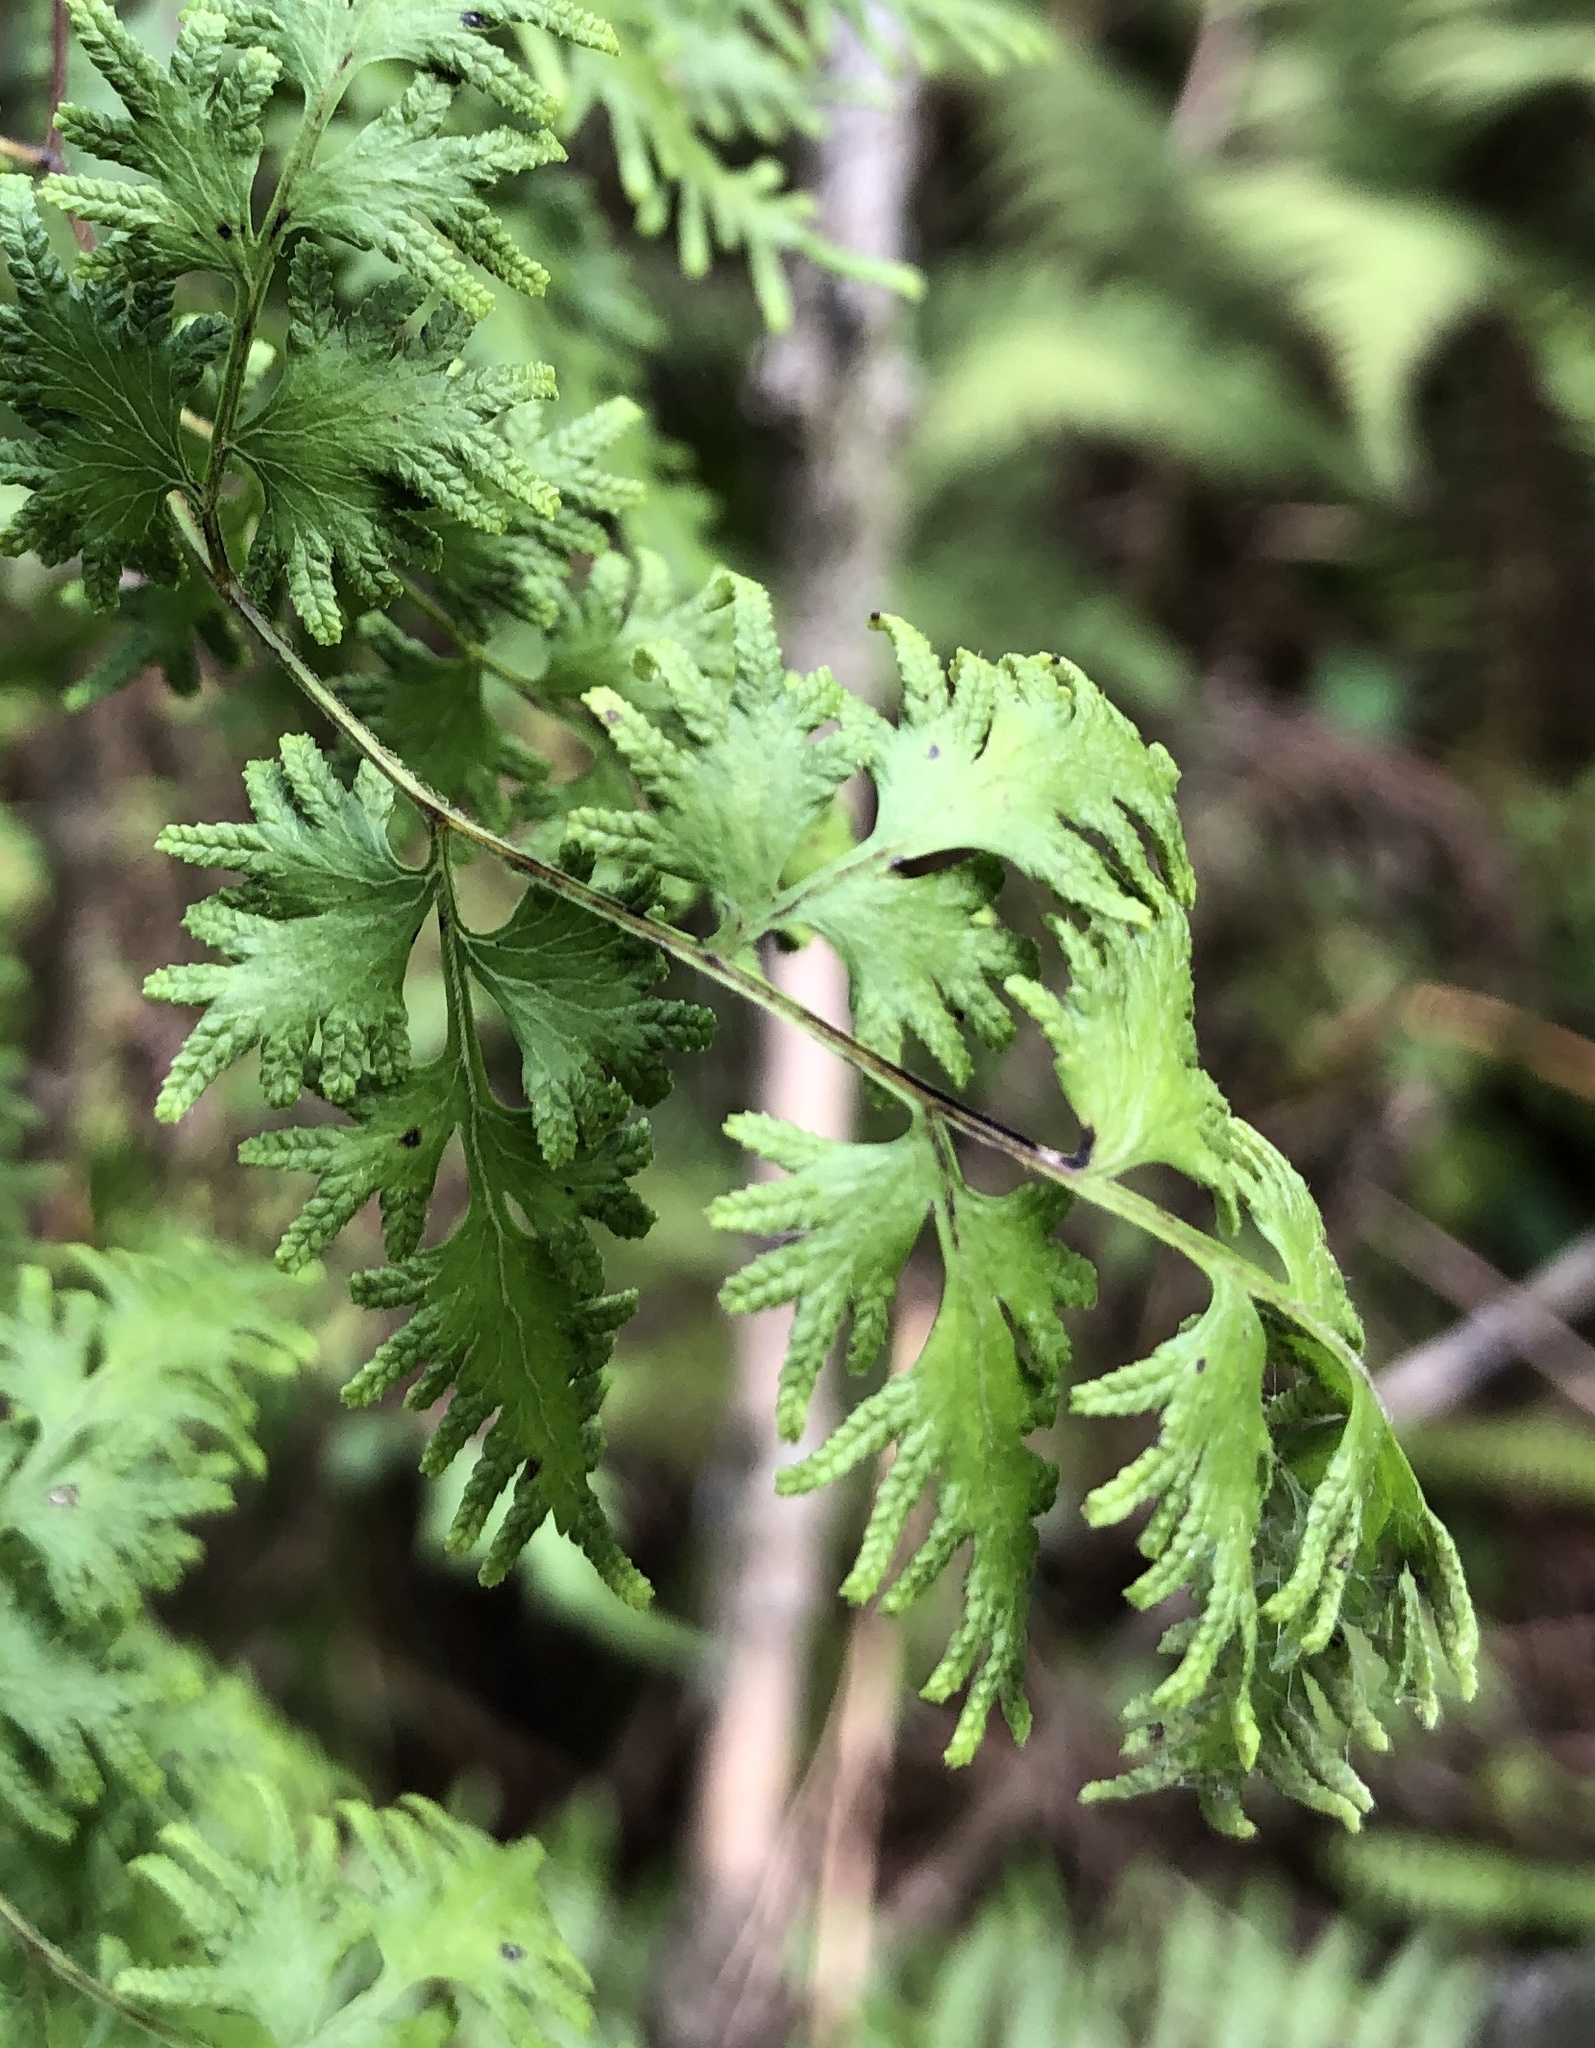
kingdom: Plantae
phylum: Tracheophyta
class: Polypodiopsida
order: Schizaeales
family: Lygodiaceae
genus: Lygodium
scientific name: Lygodium japonicum
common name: Japanese climbing fern
